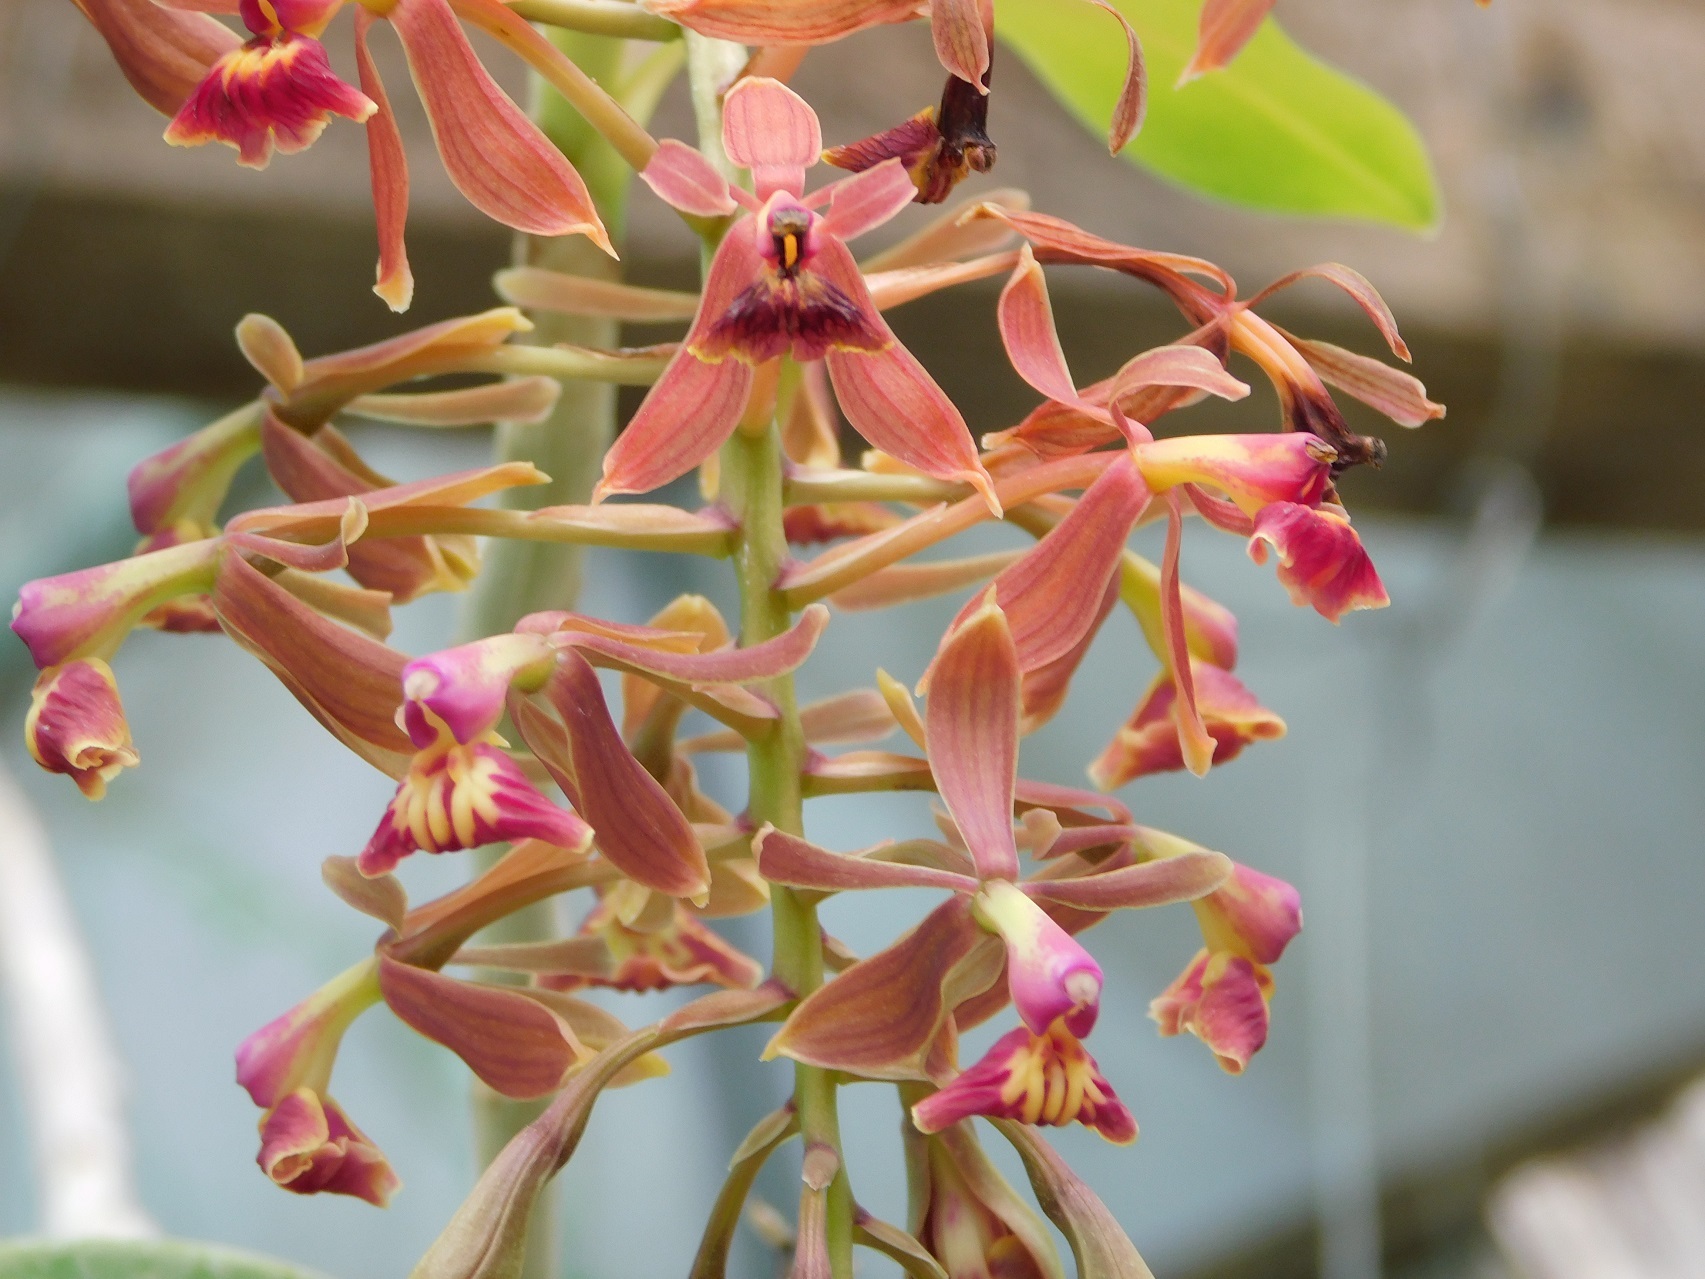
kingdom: Plantae
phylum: Tracheophyta
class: Liliopsida
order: Asparagales
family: Orchidaceae
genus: Epidendrum
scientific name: Epidendrum radioferens
